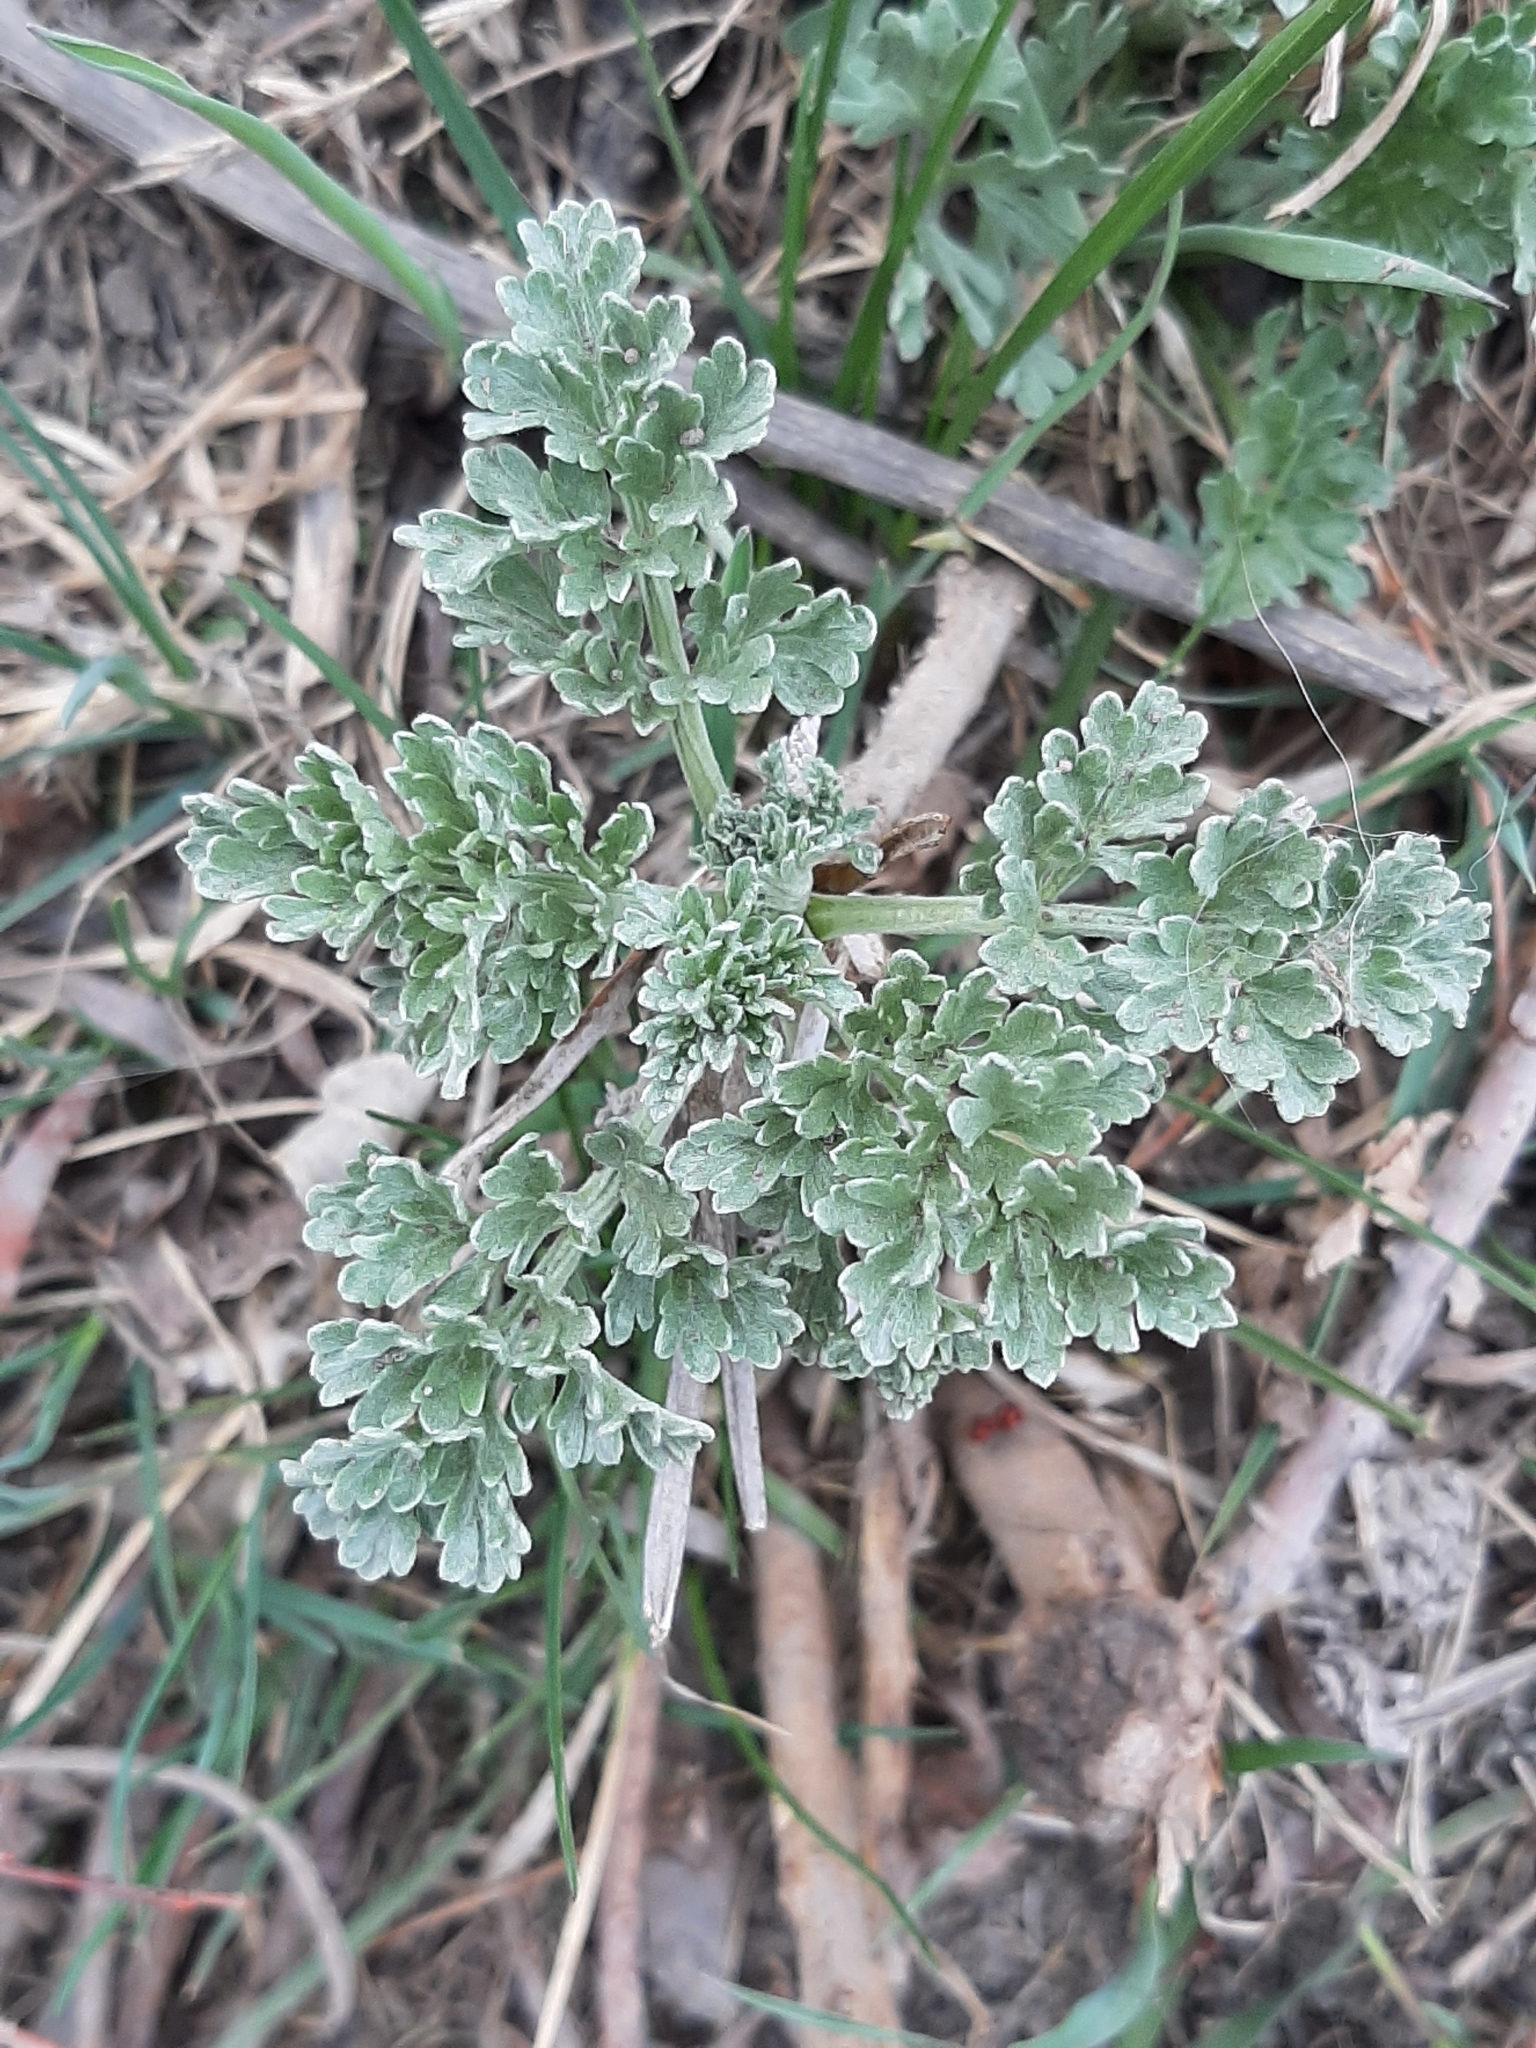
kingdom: Plantae
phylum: Tracheophyta
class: Magnoliopsida
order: Asterales
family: Asteraceae
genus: Artemisia
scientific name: Artemisia absinthium
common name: Wormwood
